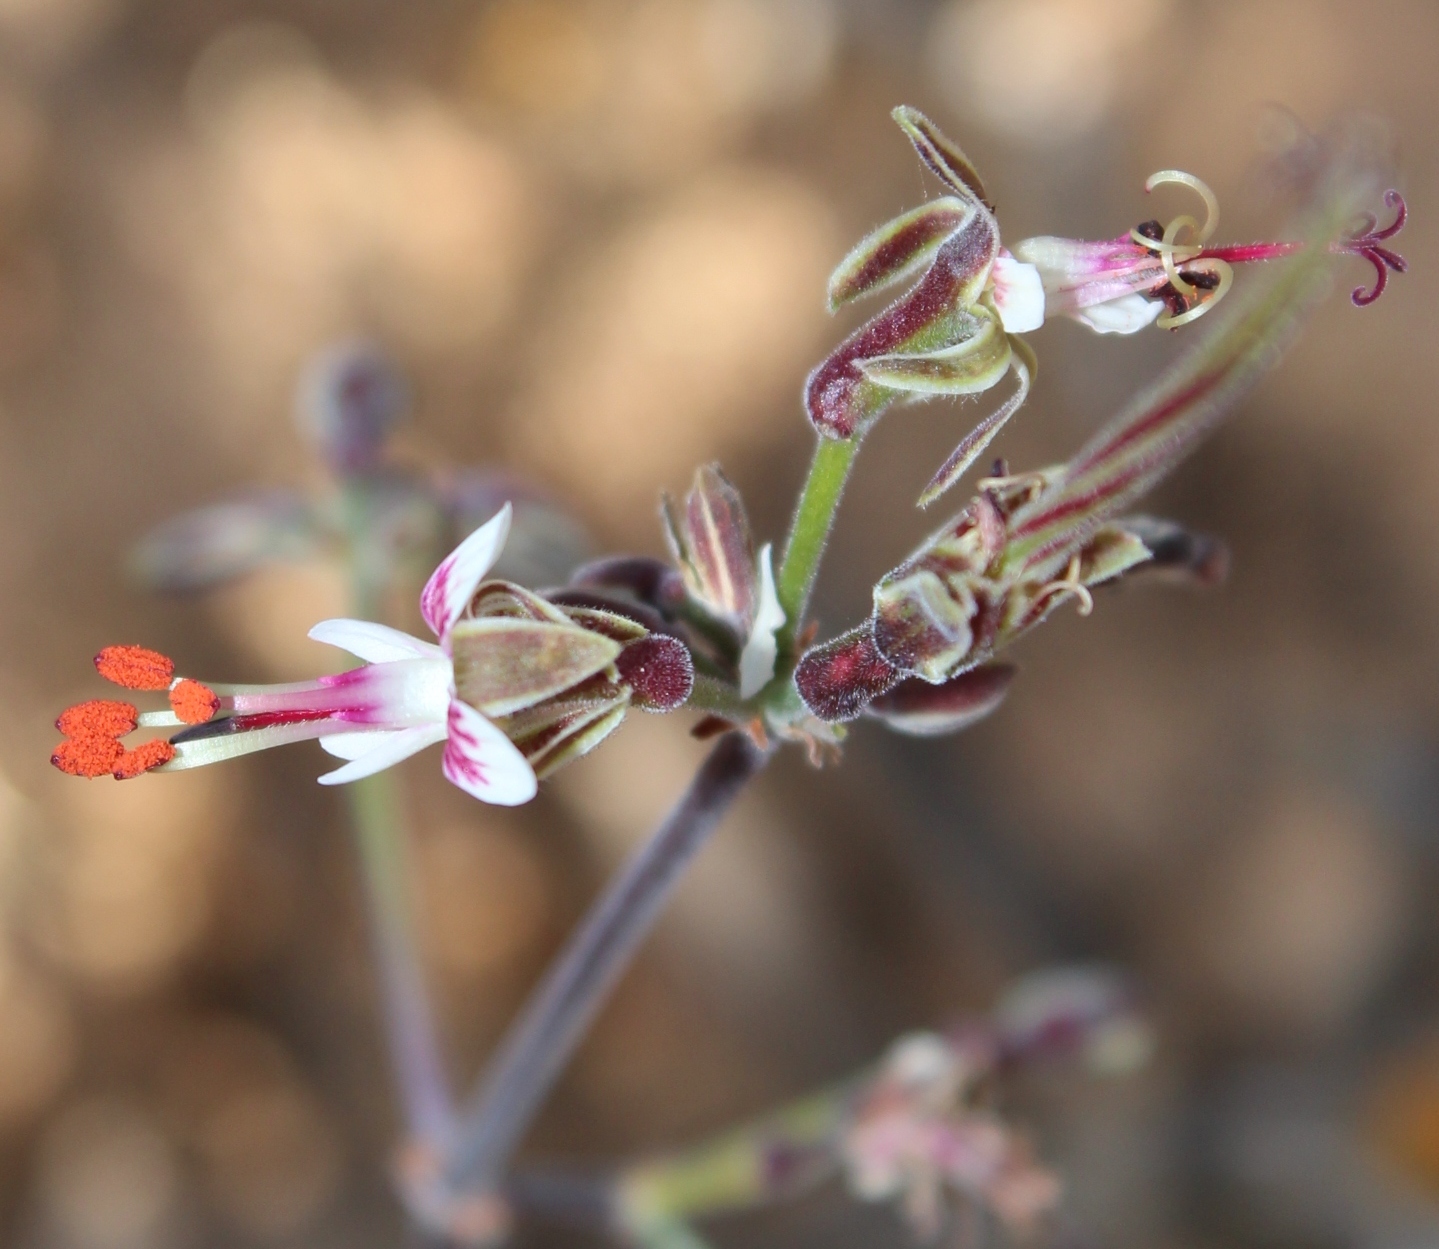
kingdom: Plantae
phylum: Tracheophyta
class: Magnoliopsida
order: Geraniales
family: Geraniaceae
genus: Pelargonium
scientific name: Pelargonium keeromsbergense
